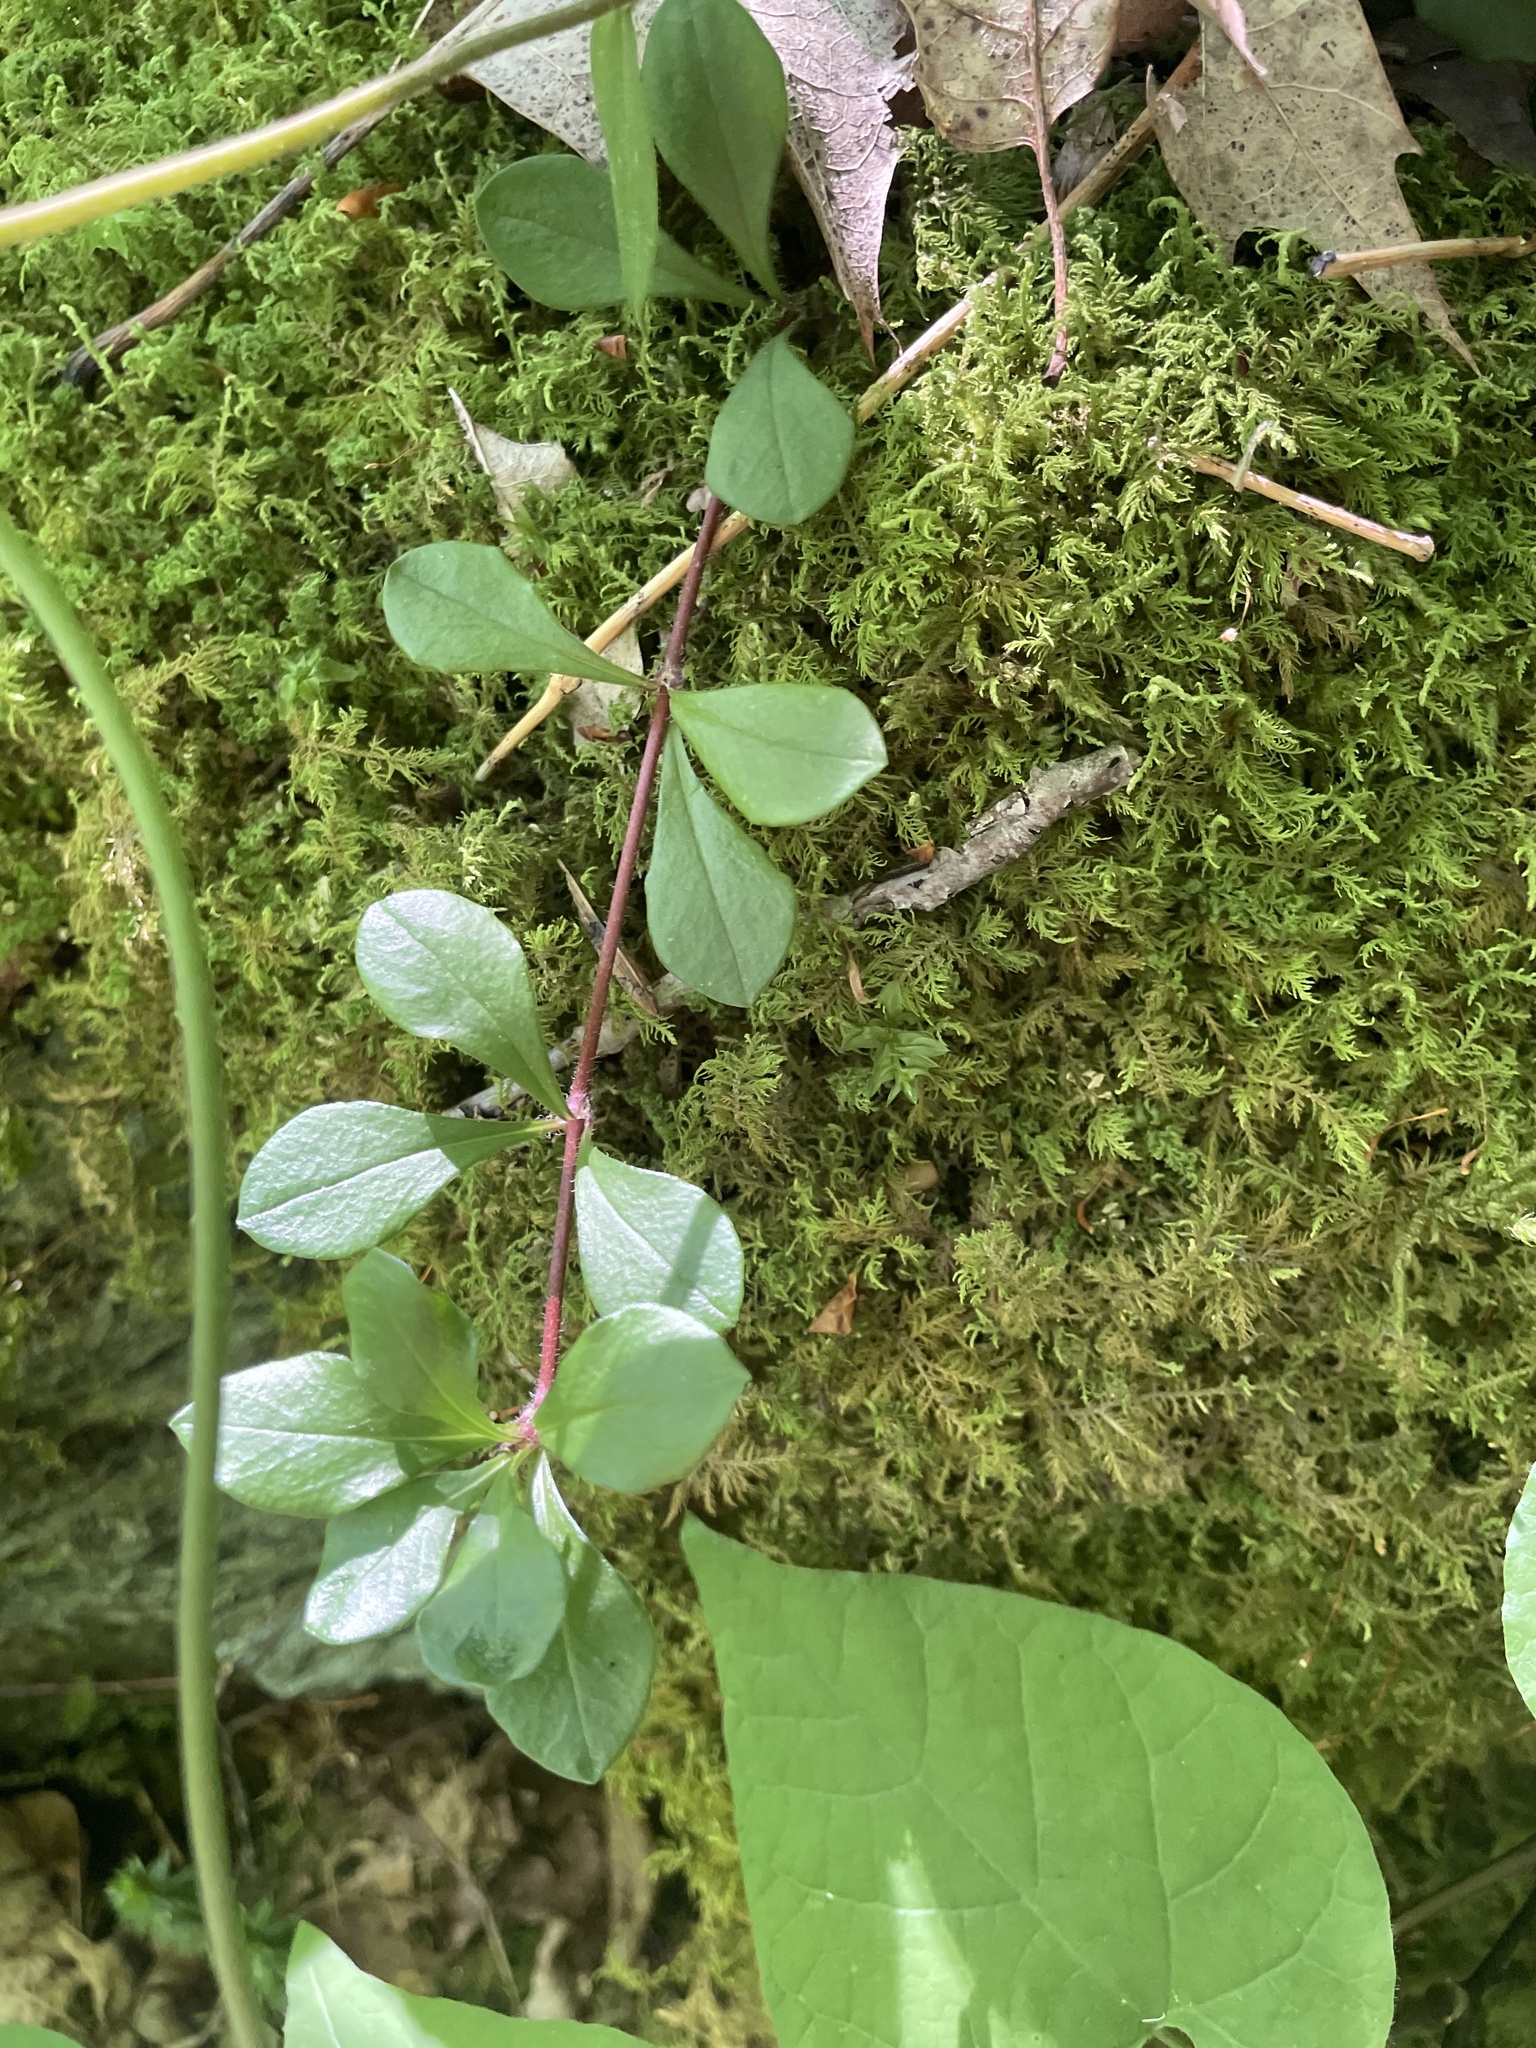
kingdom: Plantae
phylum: Tracheophyta
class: Magnoliopsida
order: Ericales
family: Polemoniaceae
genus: Phlox
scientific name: Phlox stolonifera
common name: Creeping phlox
